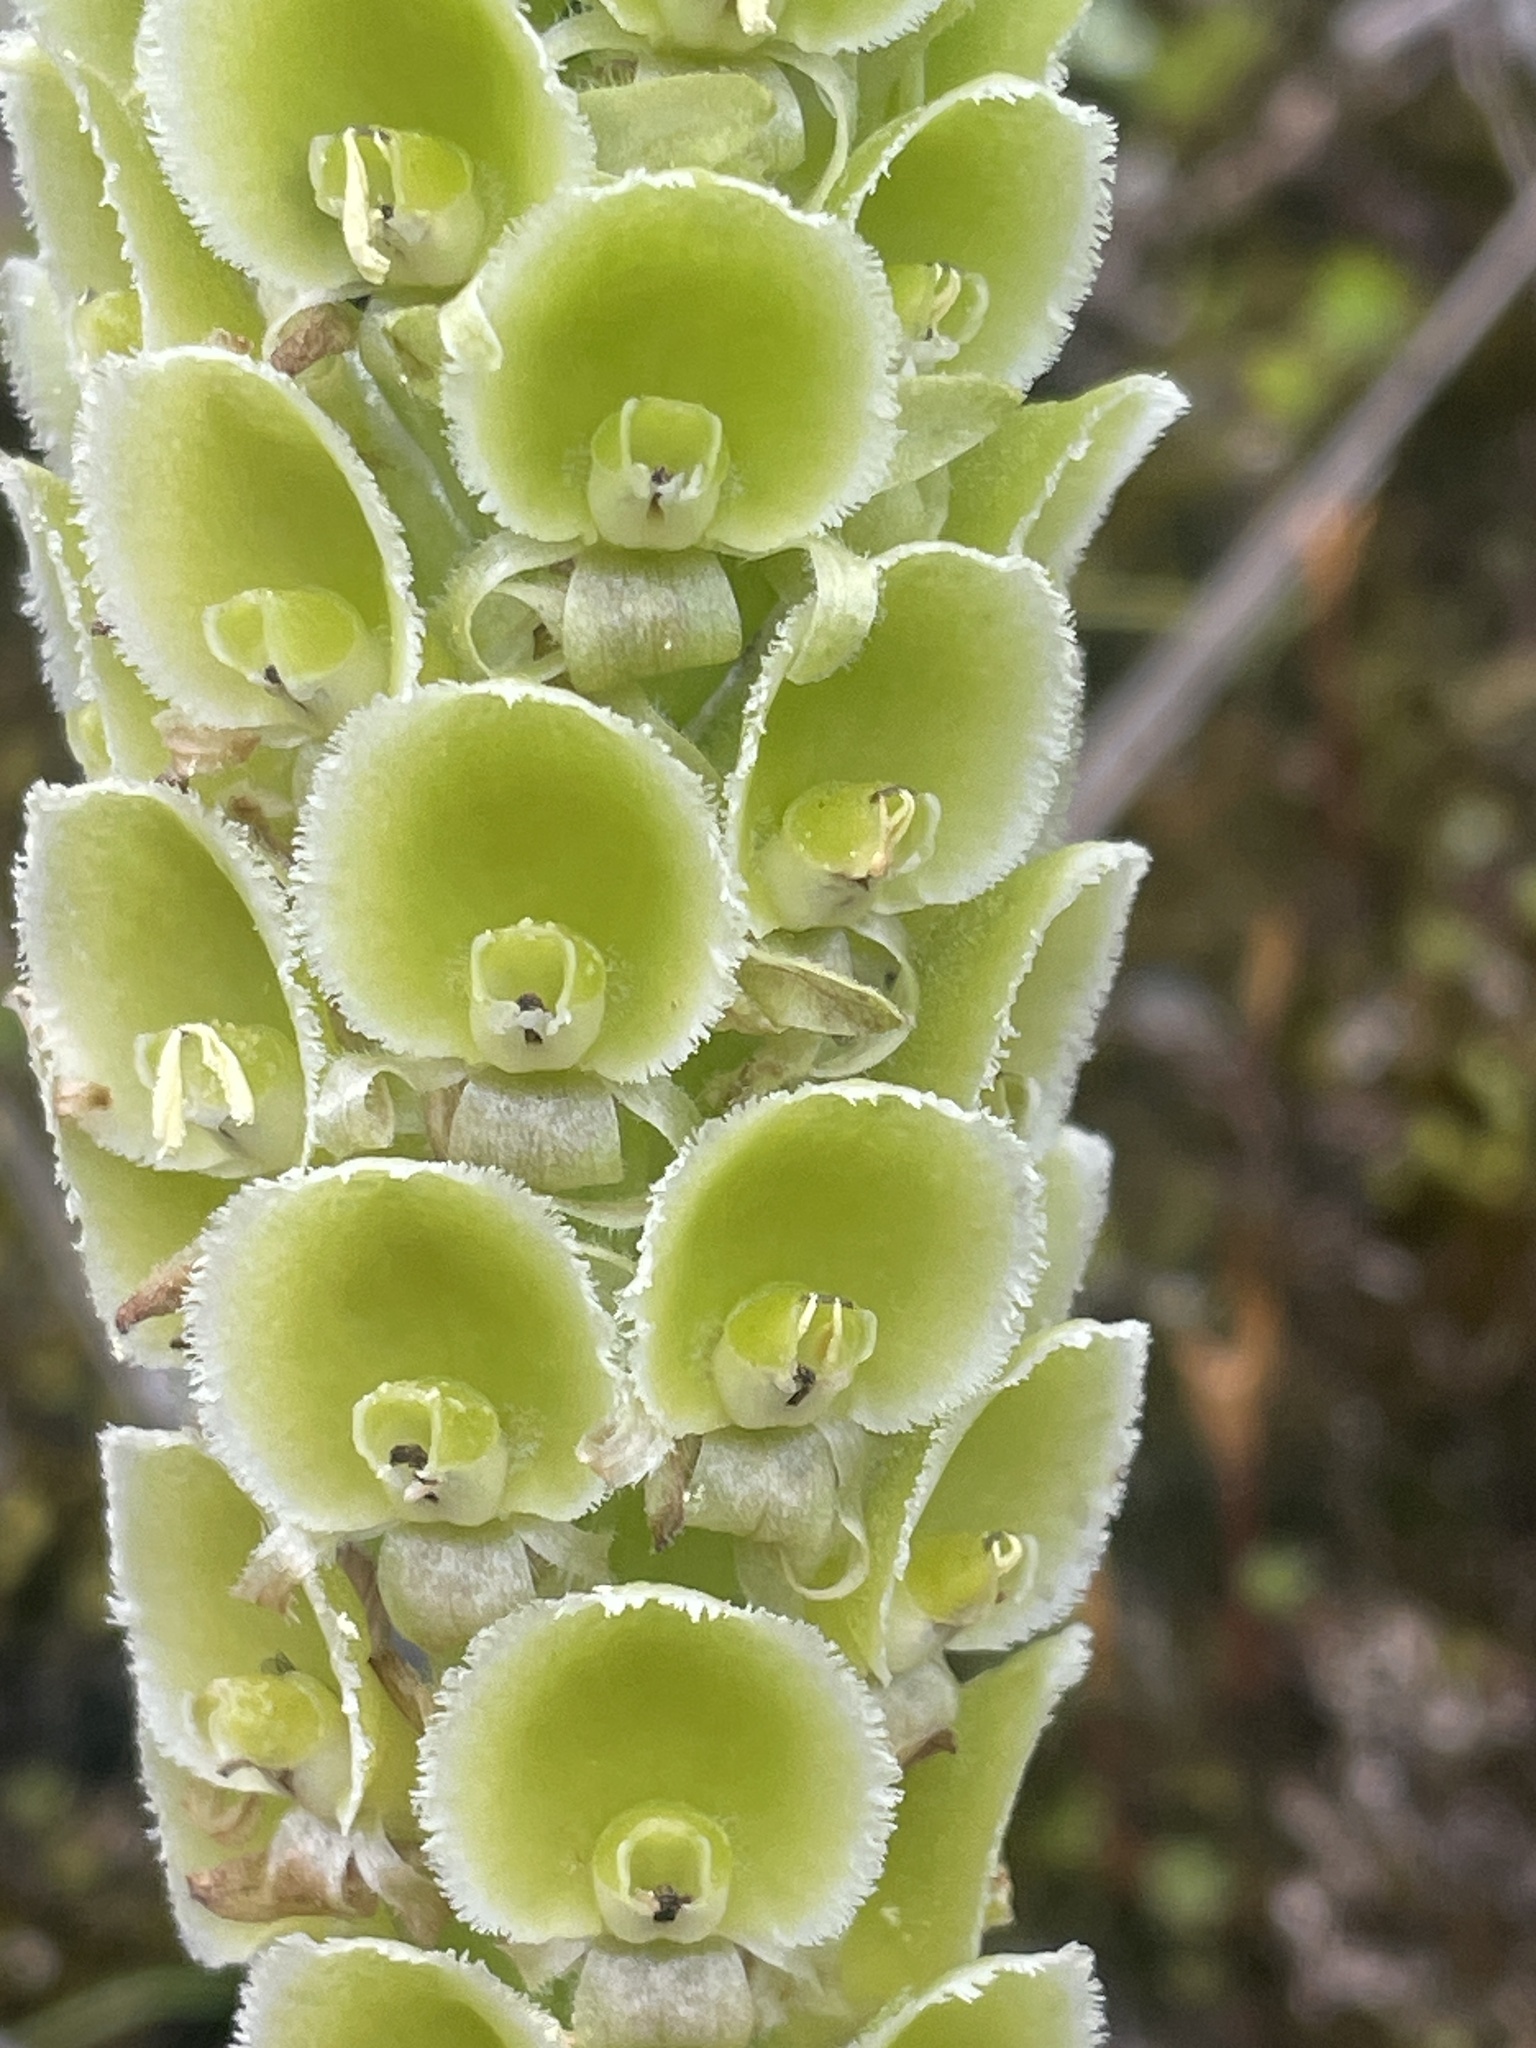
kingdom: Plantae
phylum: Tracheophyta
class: Liliopsida
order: Asparagales
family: Orchidaceae
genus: Altensteinia
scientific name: Altensteinia fimbriata
